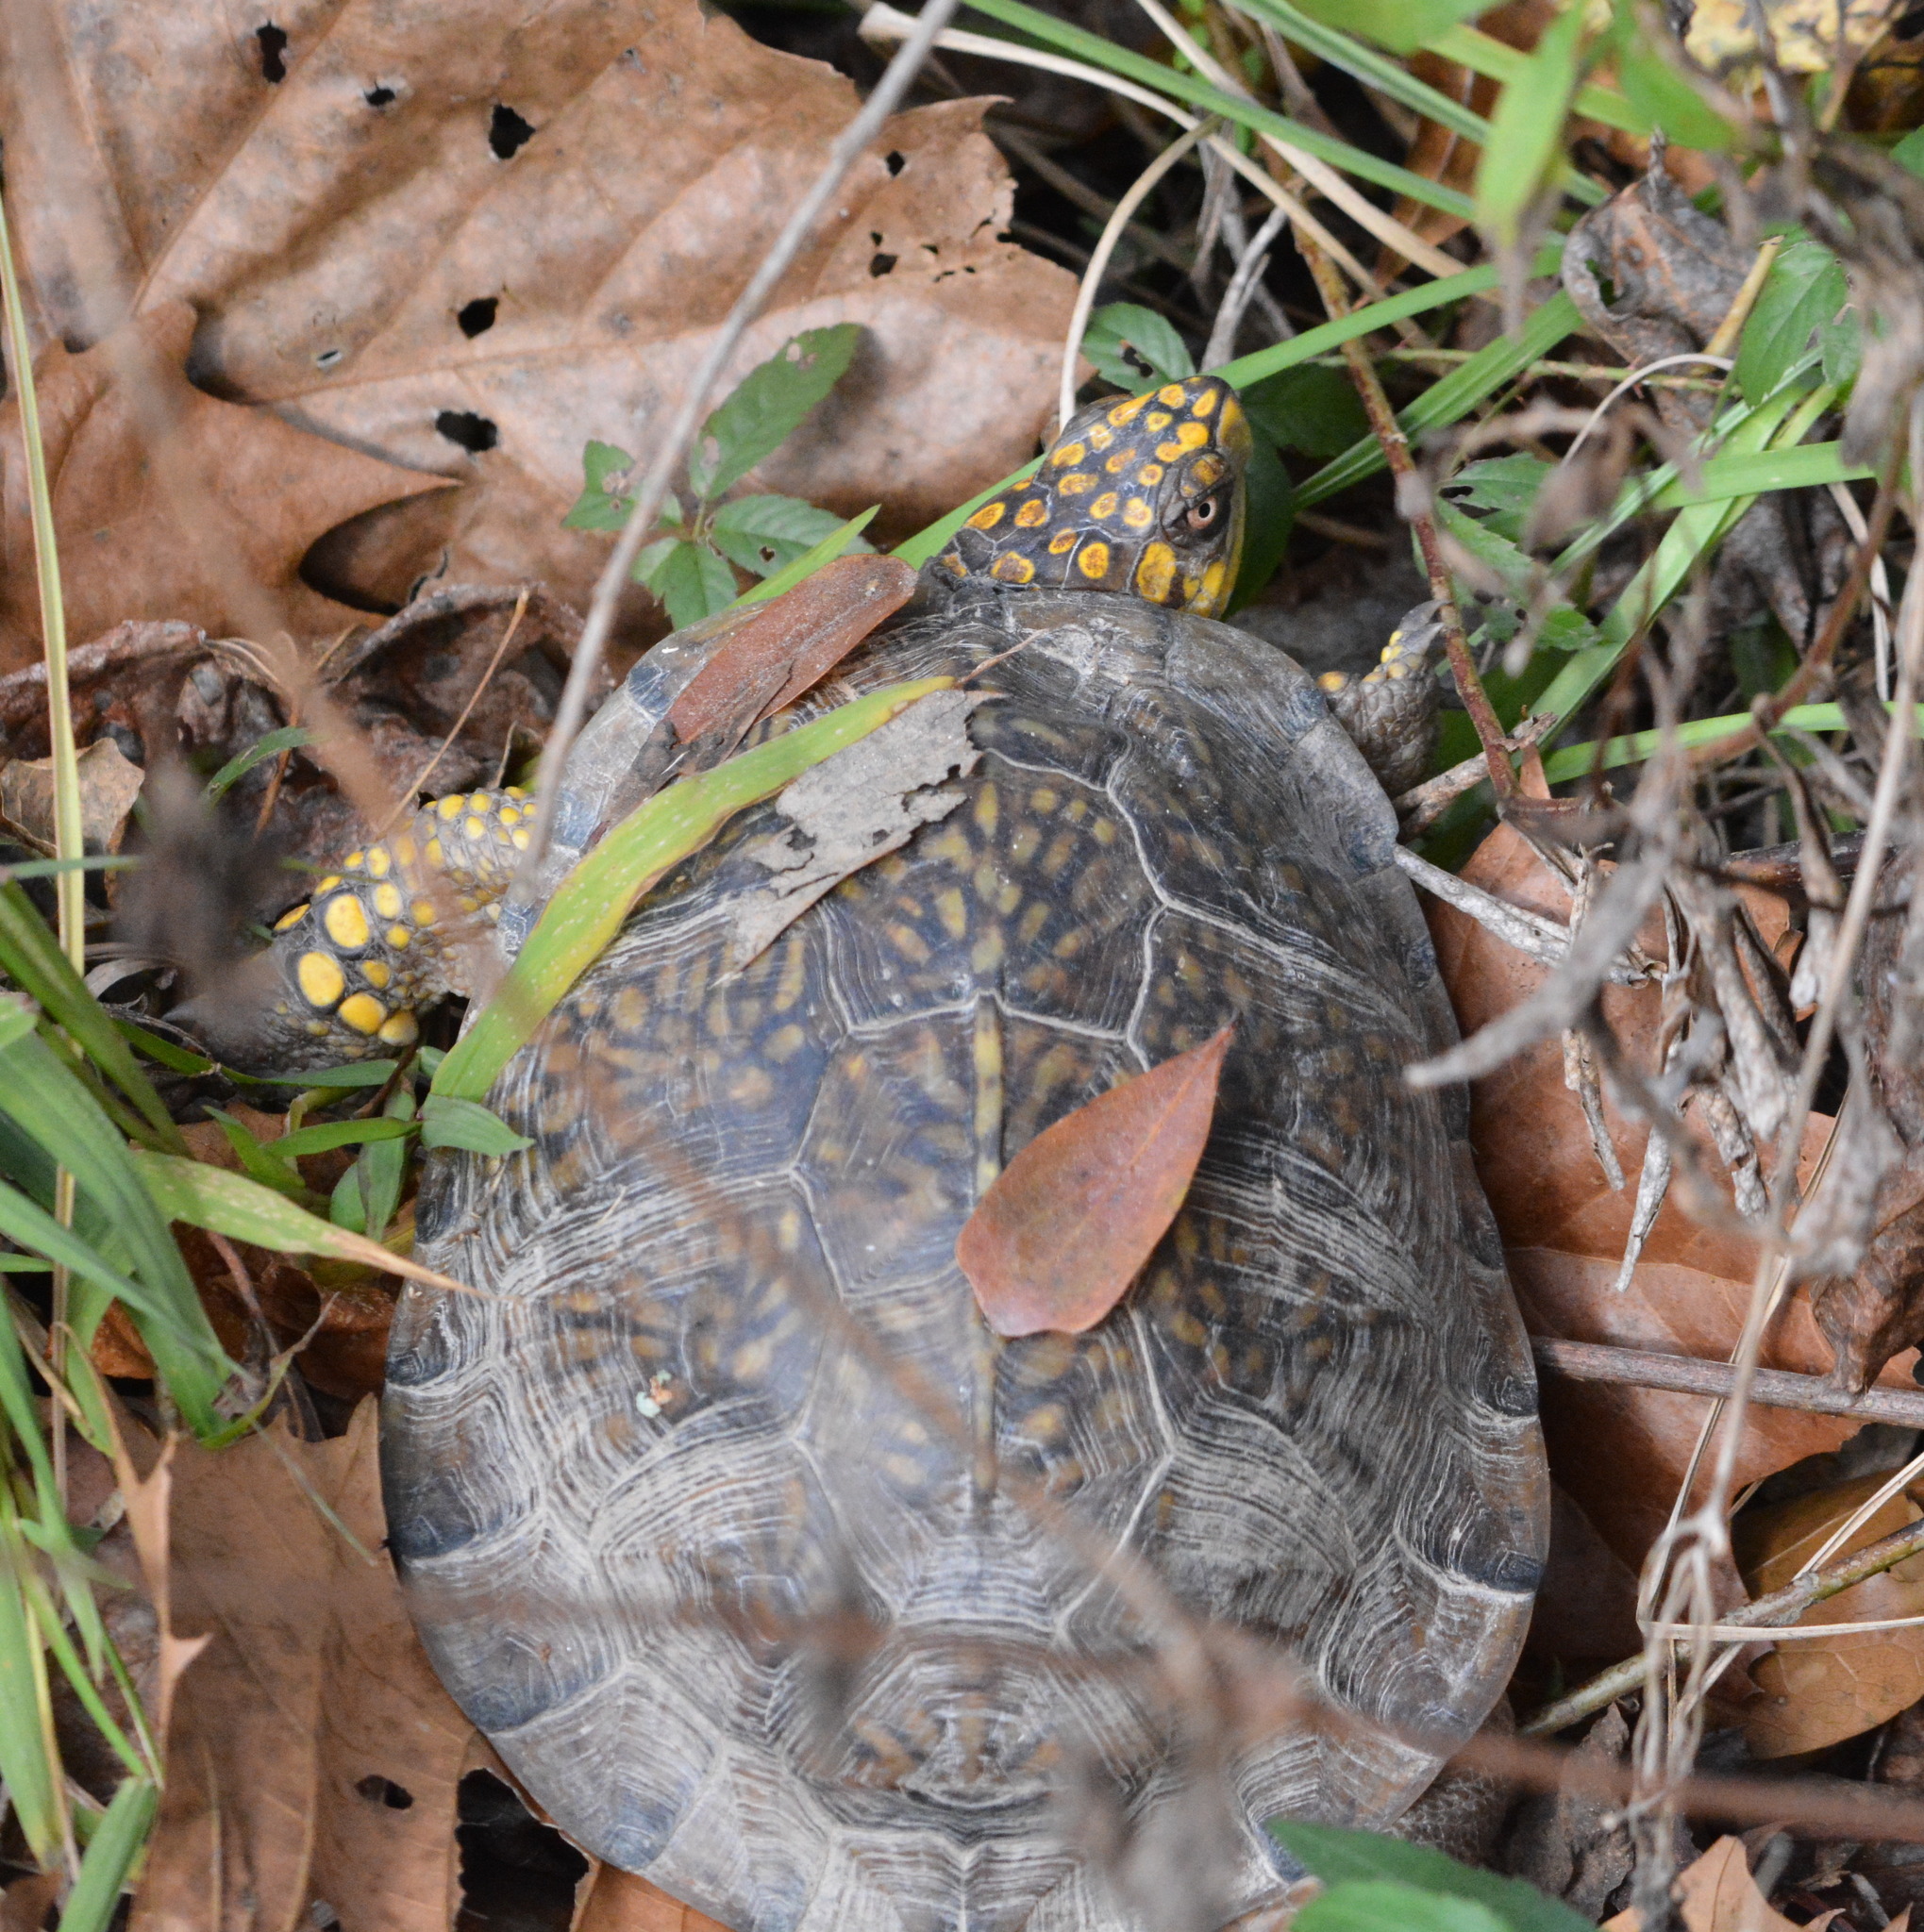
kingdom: Animalia
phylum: Chordata
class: Testudines
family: Emydidae
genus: Terrapene
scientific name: Terrapene carolina
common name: Common box turtle
